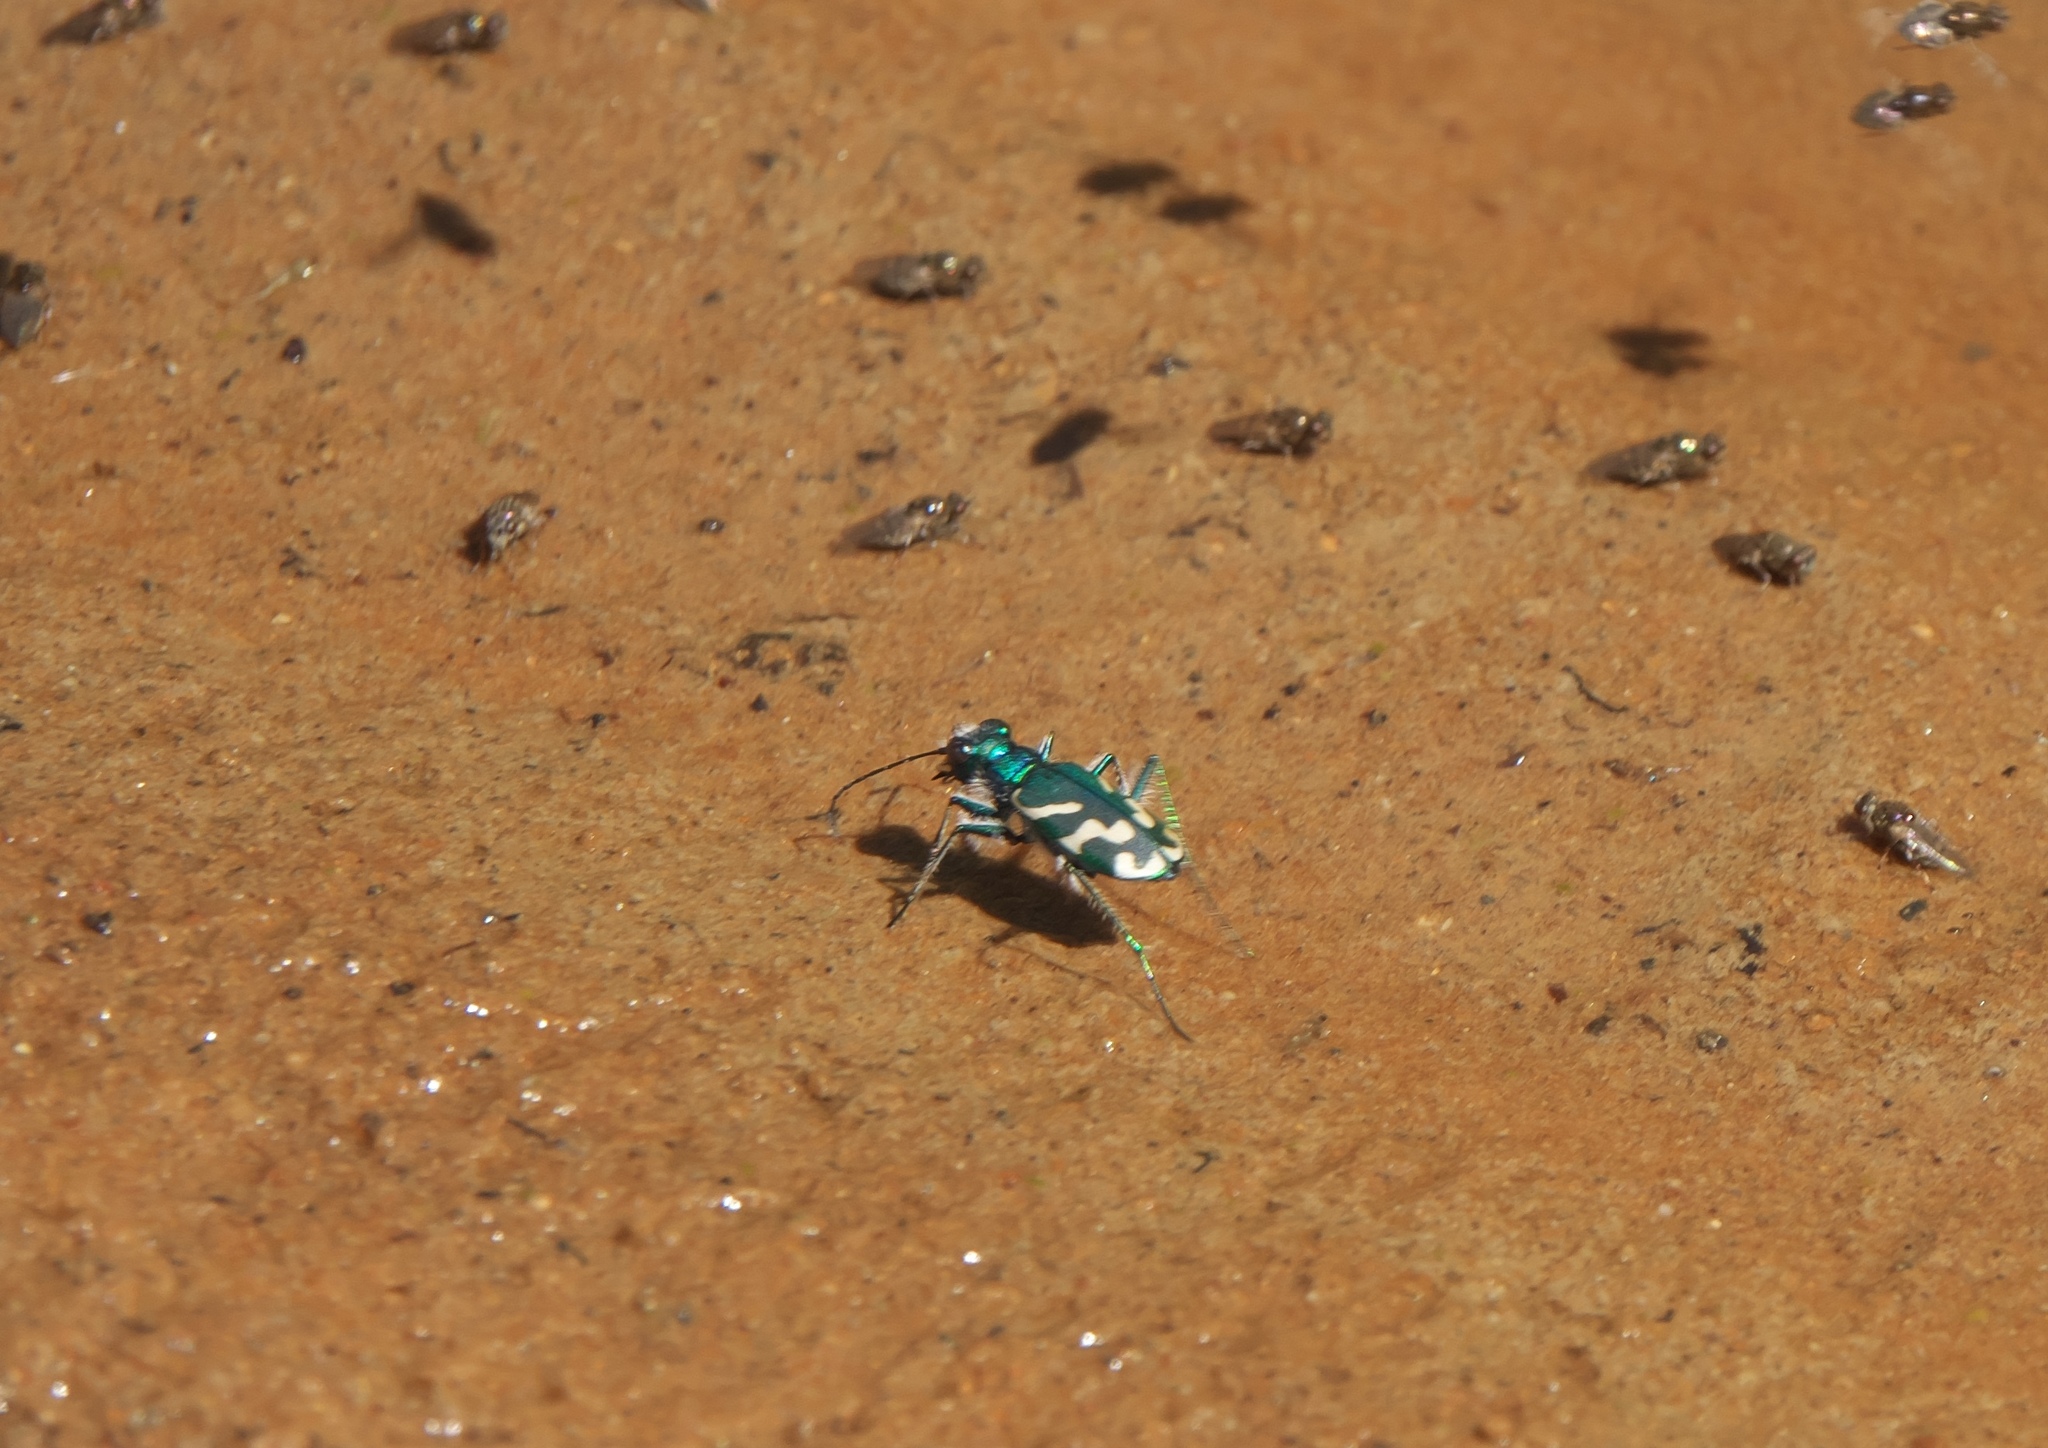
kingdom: Animalia
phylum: Arthropoda
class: Insecta
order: Coleoptera
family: Carabidae
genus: Cicindela
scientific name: Cicindela tranquebarica
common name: Oblique-lined tiger beetle
